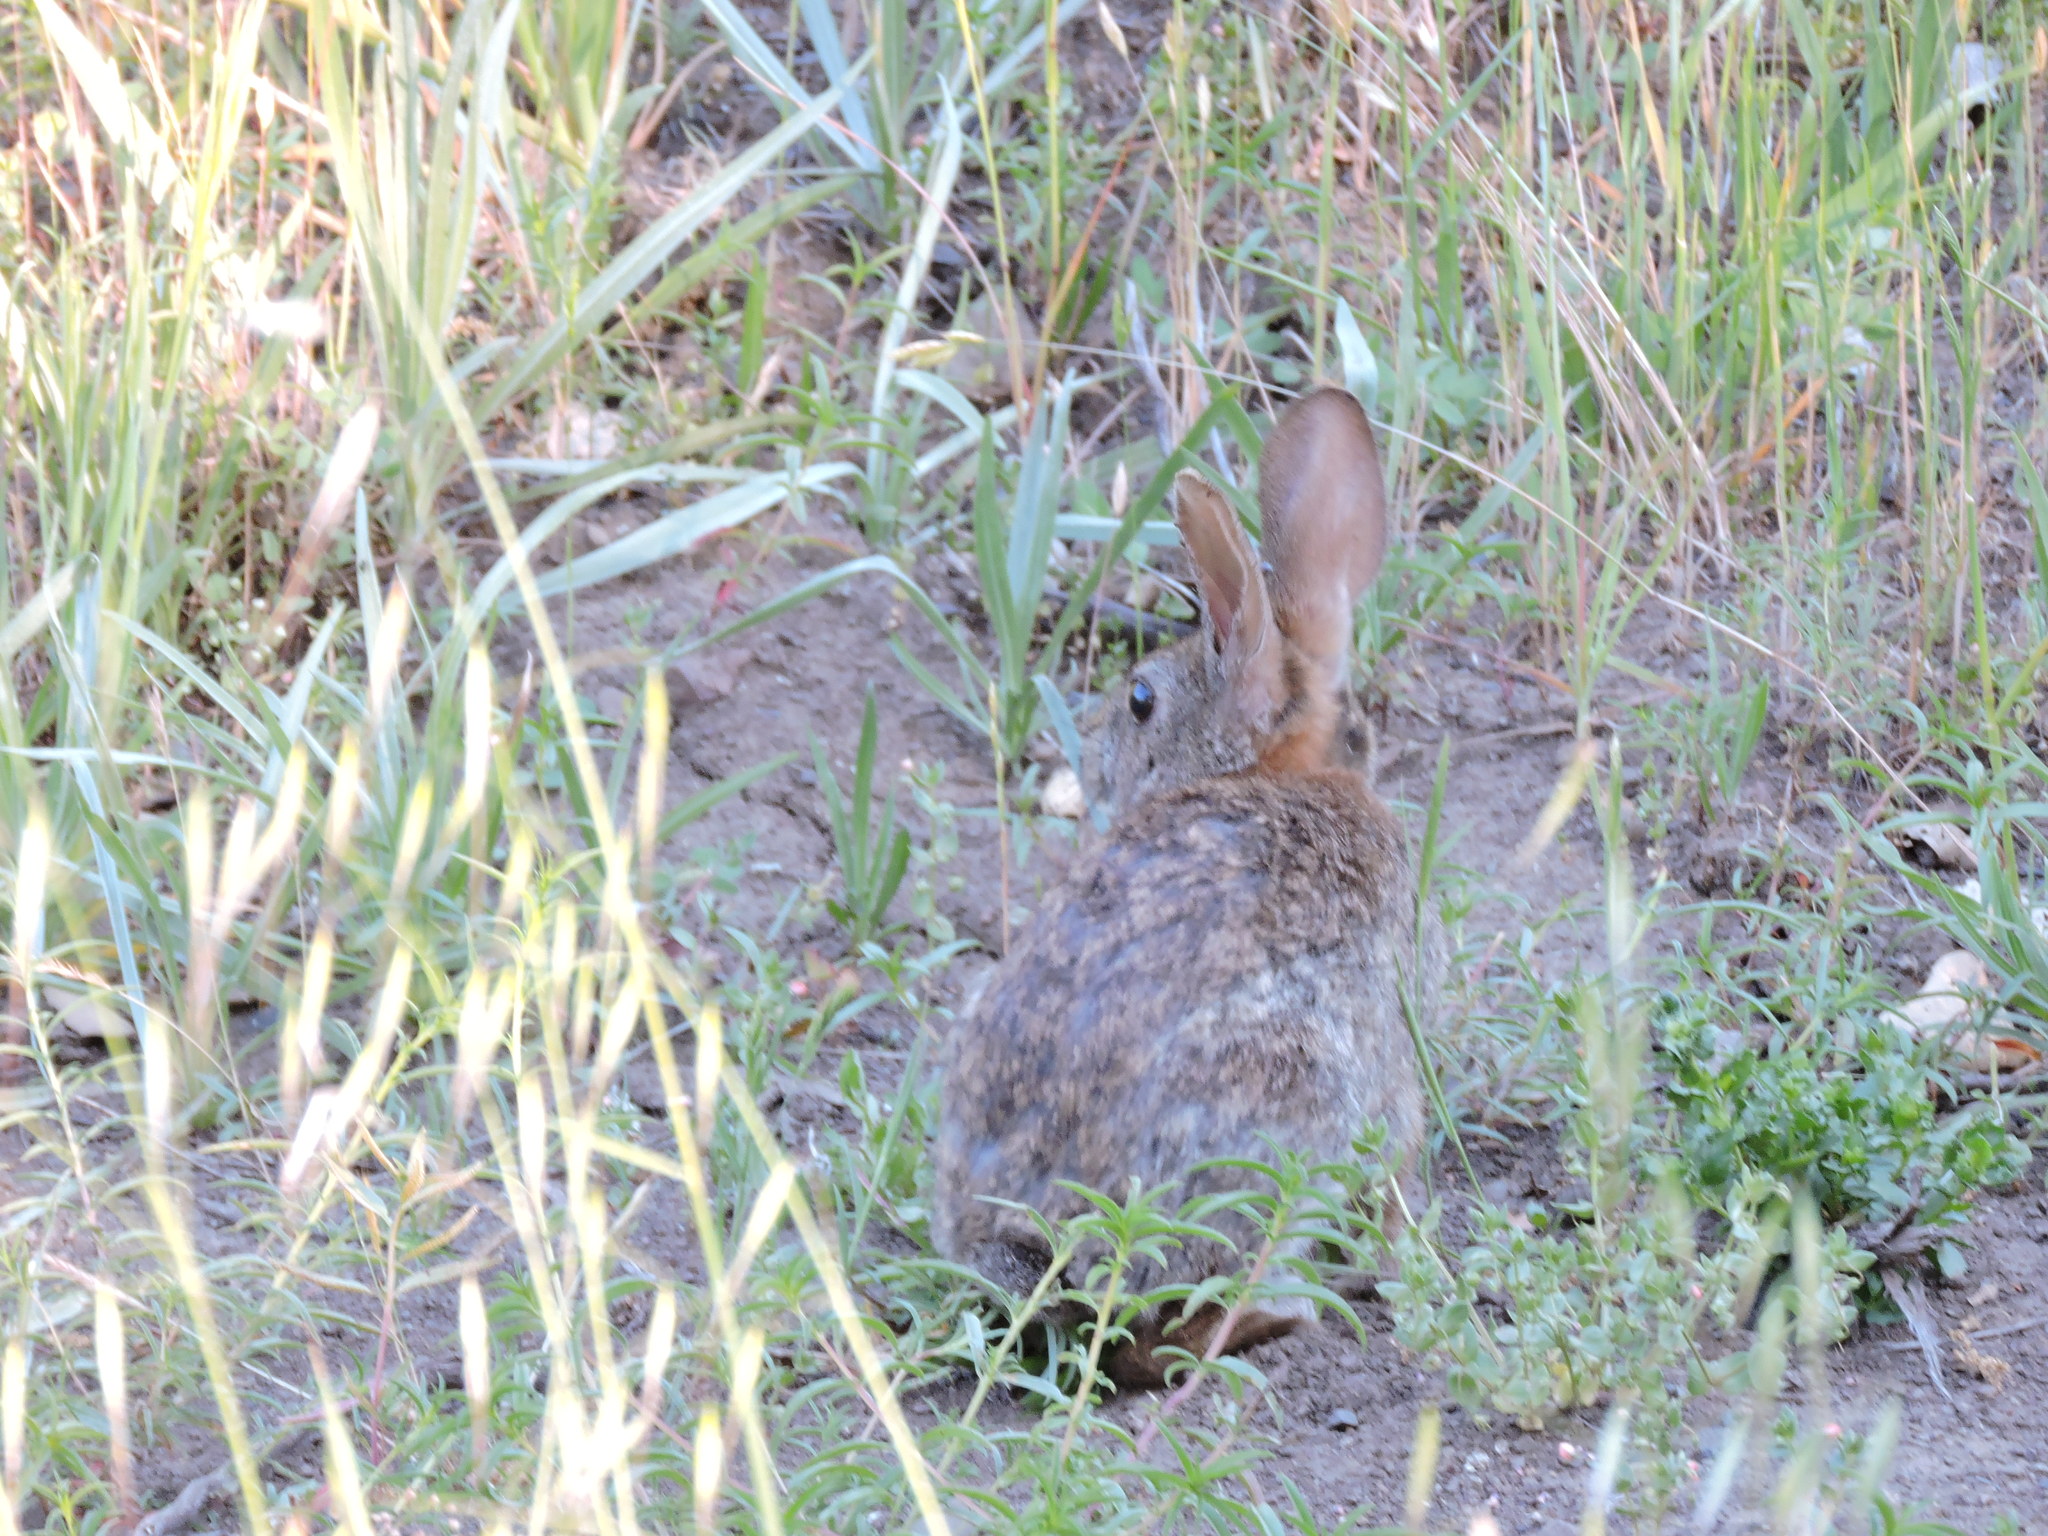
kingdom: Animalia
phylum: Chordata
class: Mammalia
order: Lagomorpha
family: Leporidae
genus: Sylvilagus
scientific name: Sylvilagus bachmani
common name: Brush rabbit
